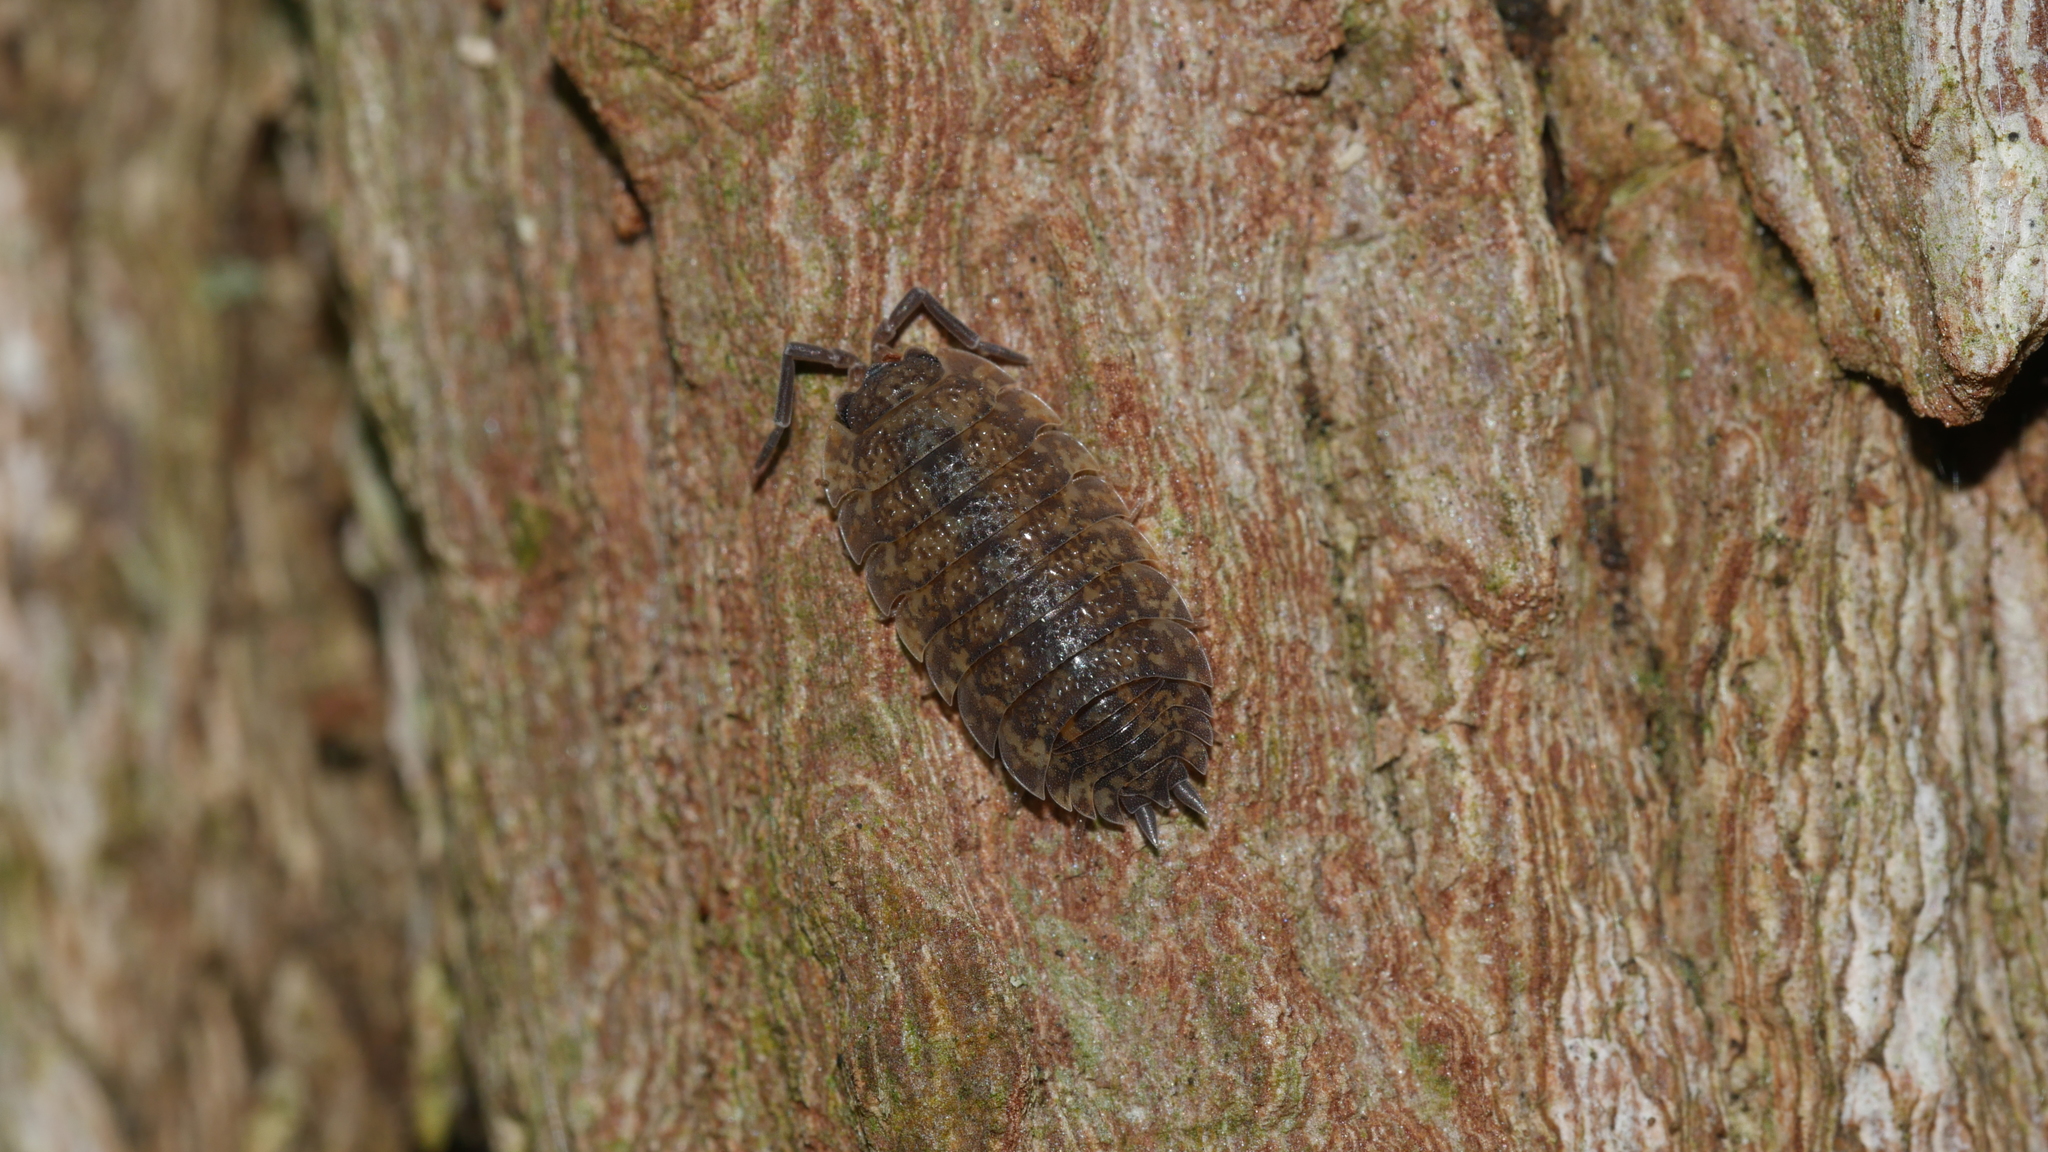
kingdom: Animalia
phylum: Arthropoda
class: Malacostraca
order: Isopoda
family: Porcellionidae
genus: Porcellio
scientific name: Porcellio scaber
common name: Common rough woodlouse
